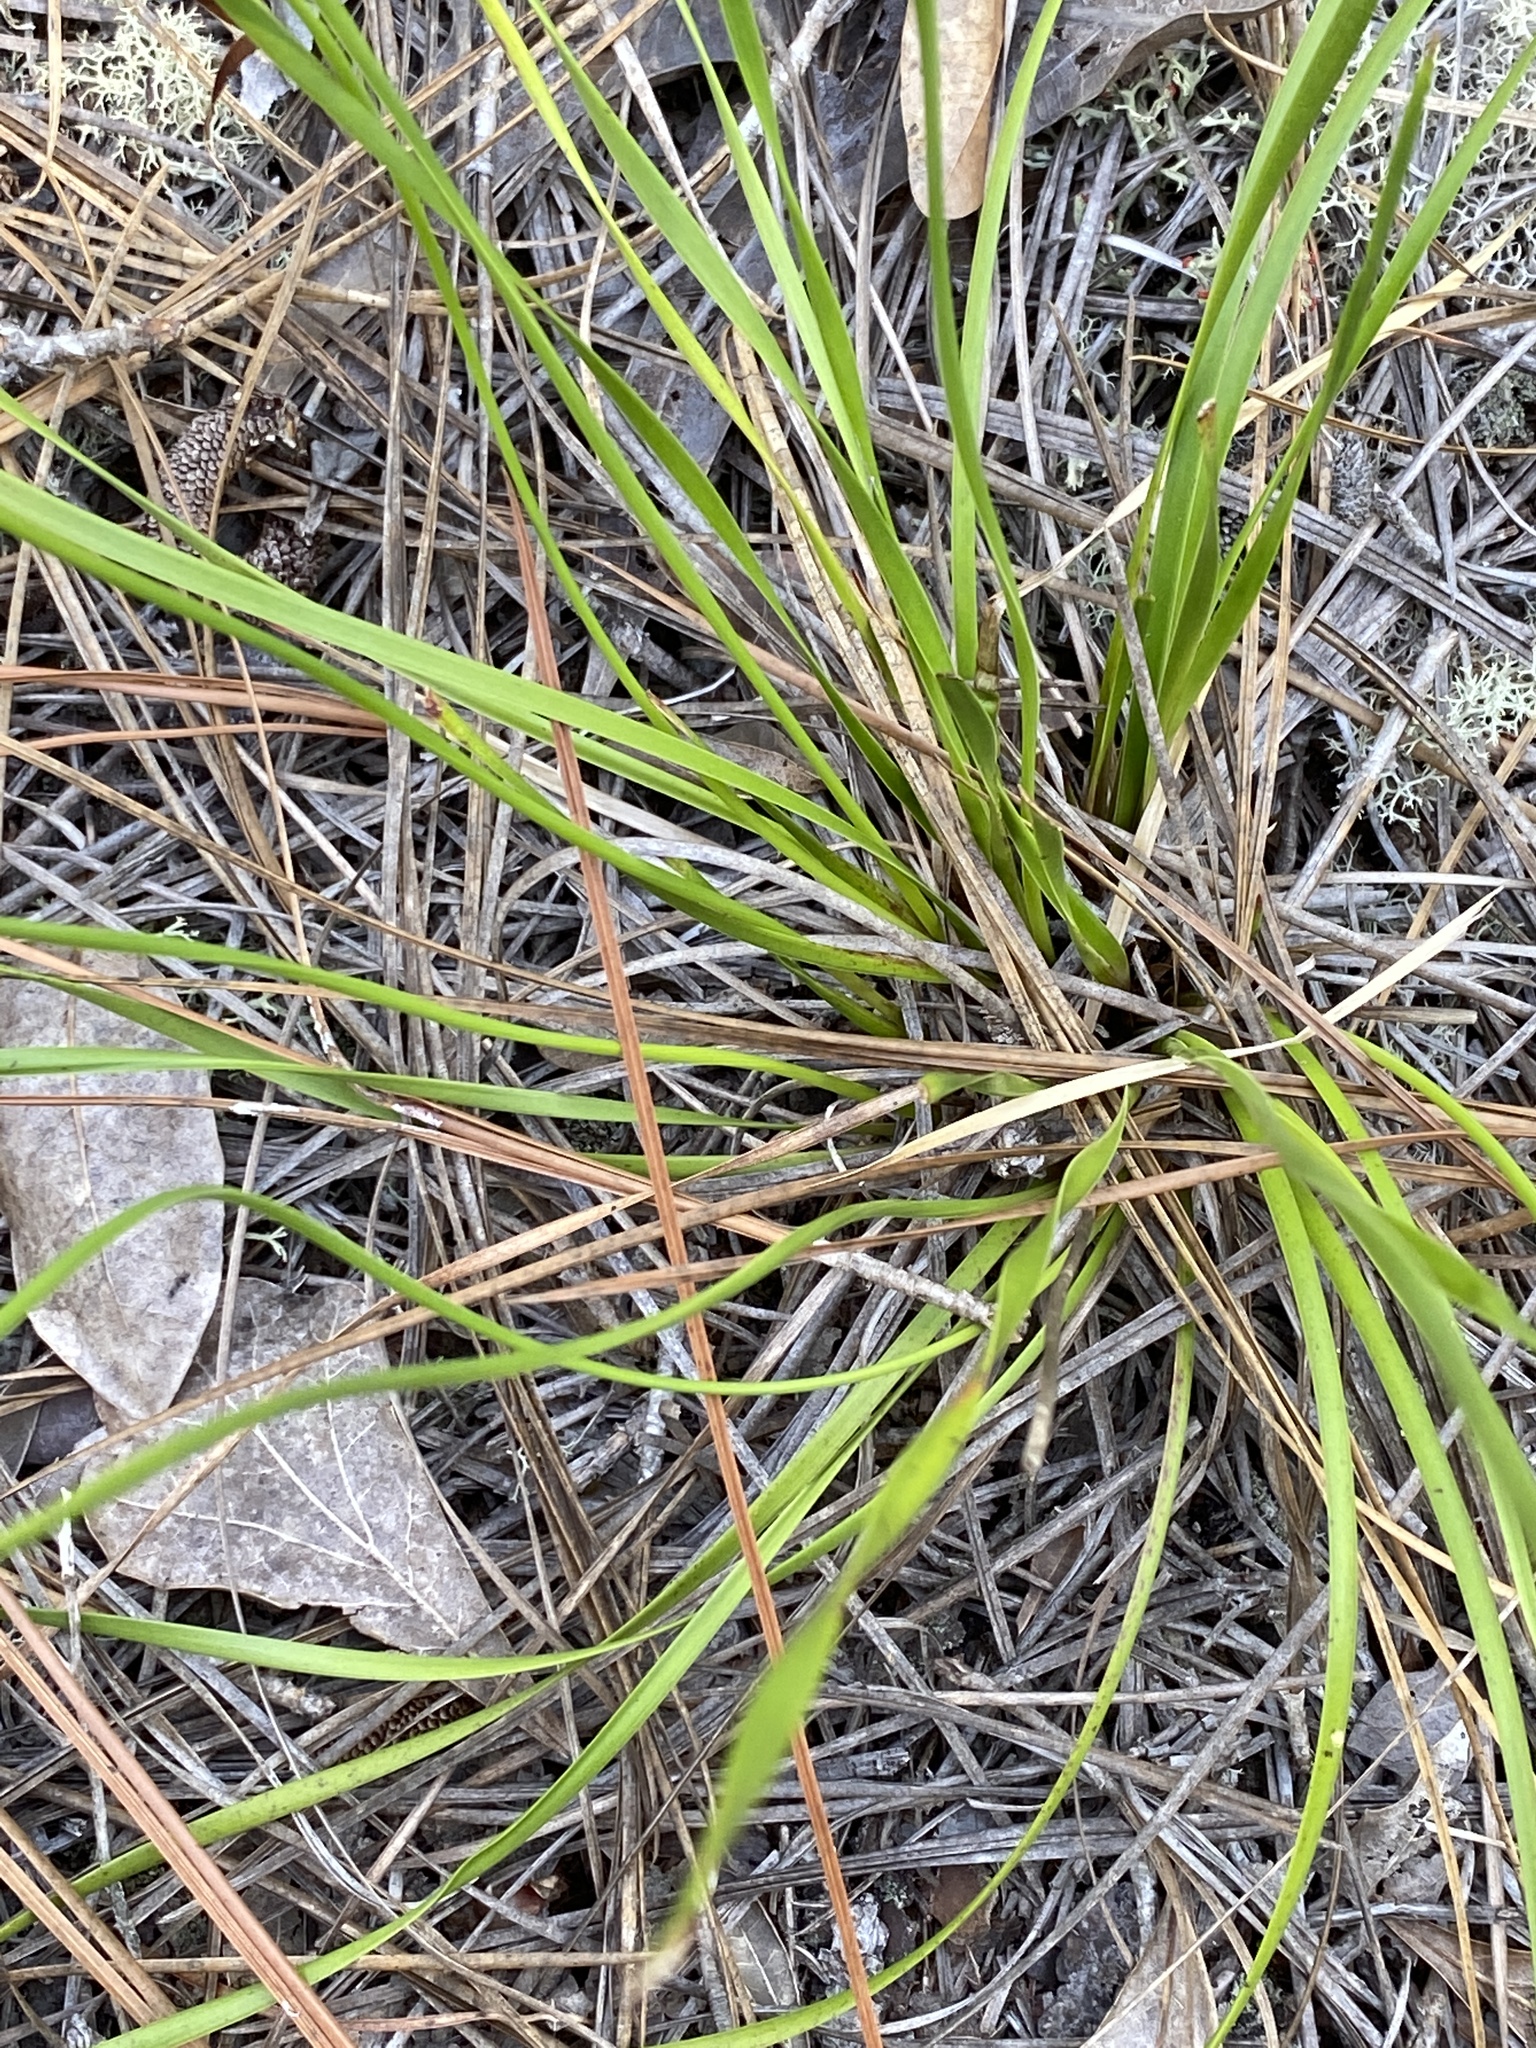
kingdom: Plantae
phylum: Tracheophyta
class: Liliopsida
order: Poales
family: Xyridaceae
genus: Xyris
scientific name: Xyris caroliniana
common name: Carolina yellow-eyed-grass
